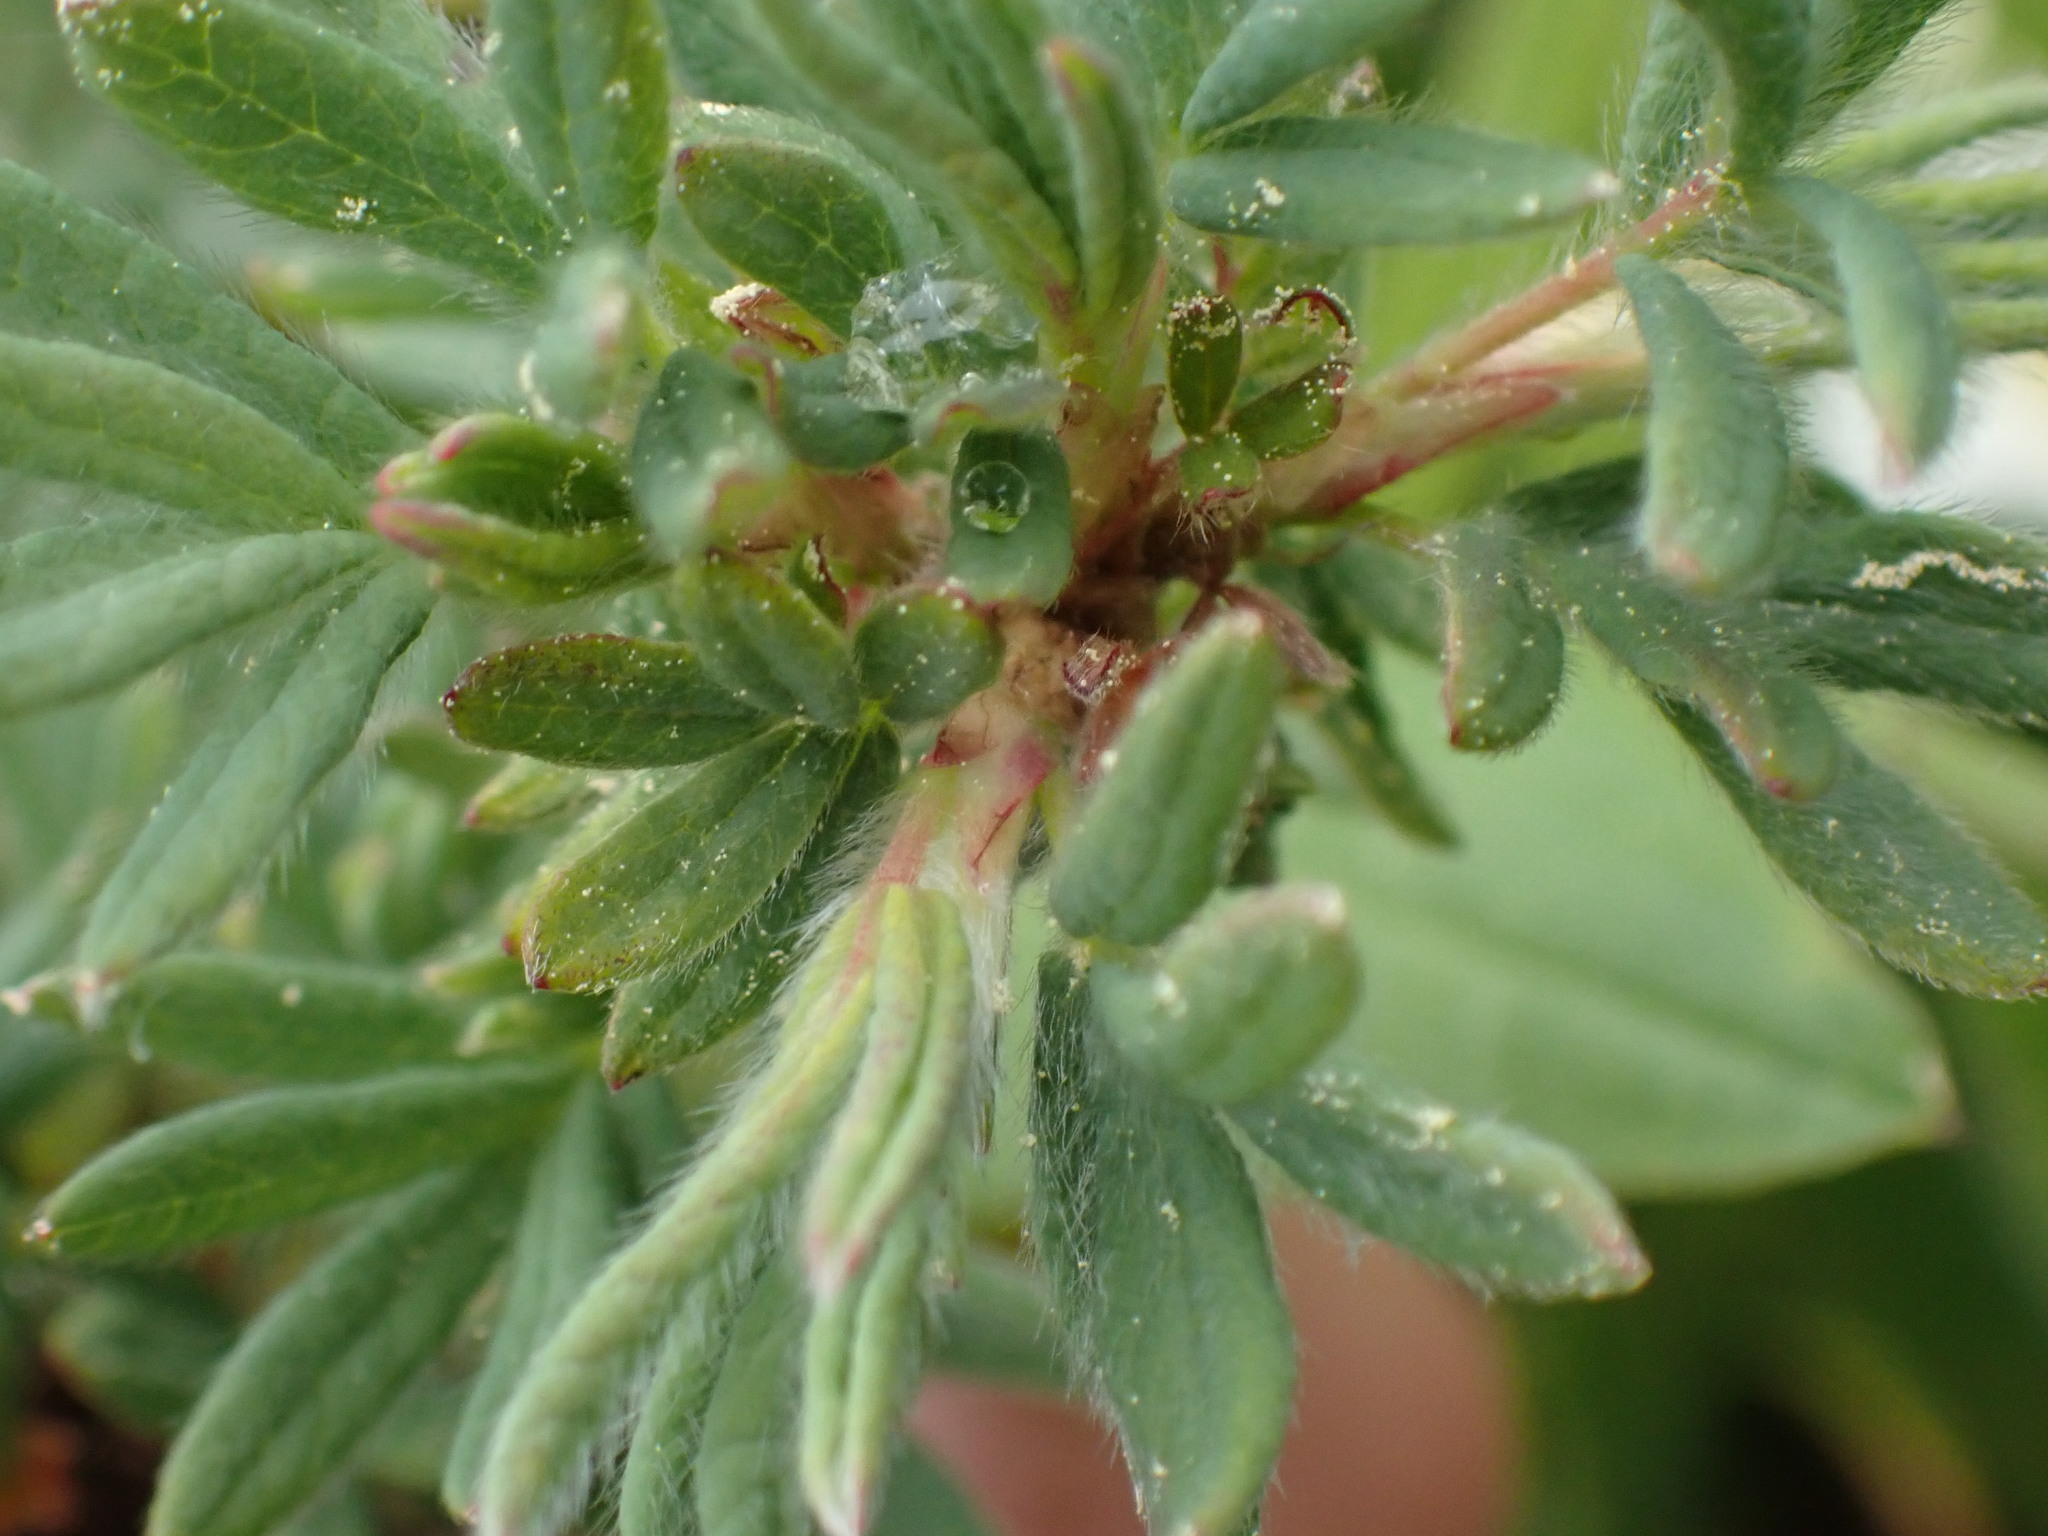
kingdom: Plantae
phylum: Tracheophyta
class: Magnoliopsida
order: Rosales
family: Rosaceae
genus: Dasiphora
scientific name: Dasiphora fruticosa
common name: Shrubby cinquefoil
